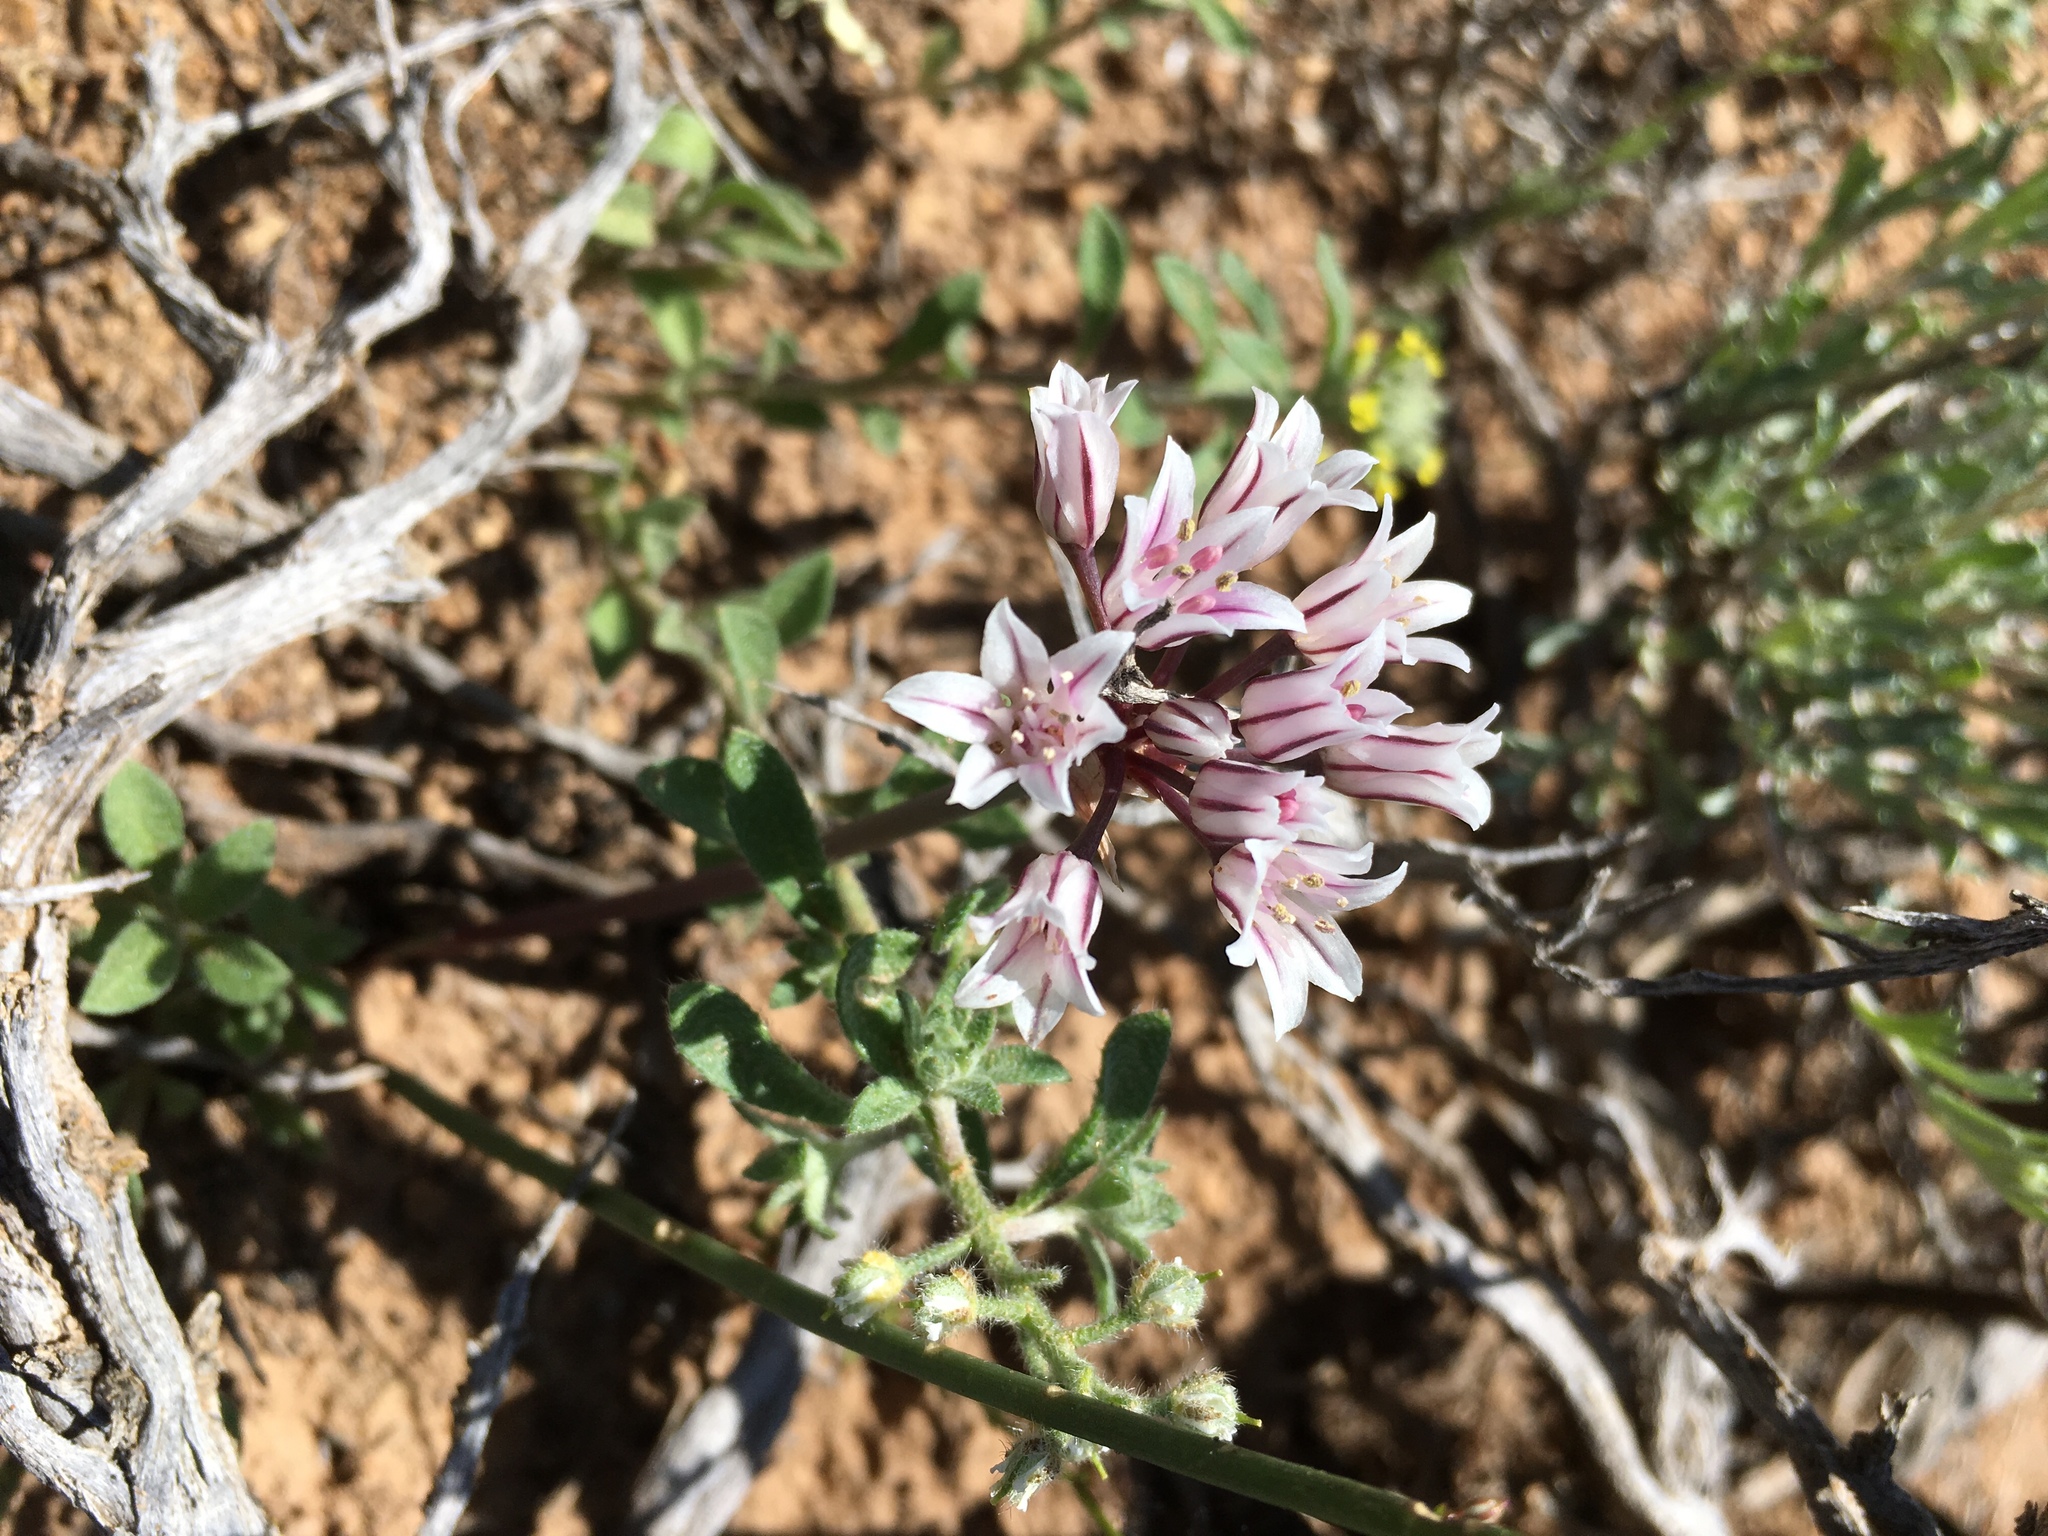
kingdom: Plantae
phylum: Tracheophyta
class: Liliopsida
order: Asparagales
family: Amaryllidaceae
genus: Allium
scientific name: Allium macropetalum
